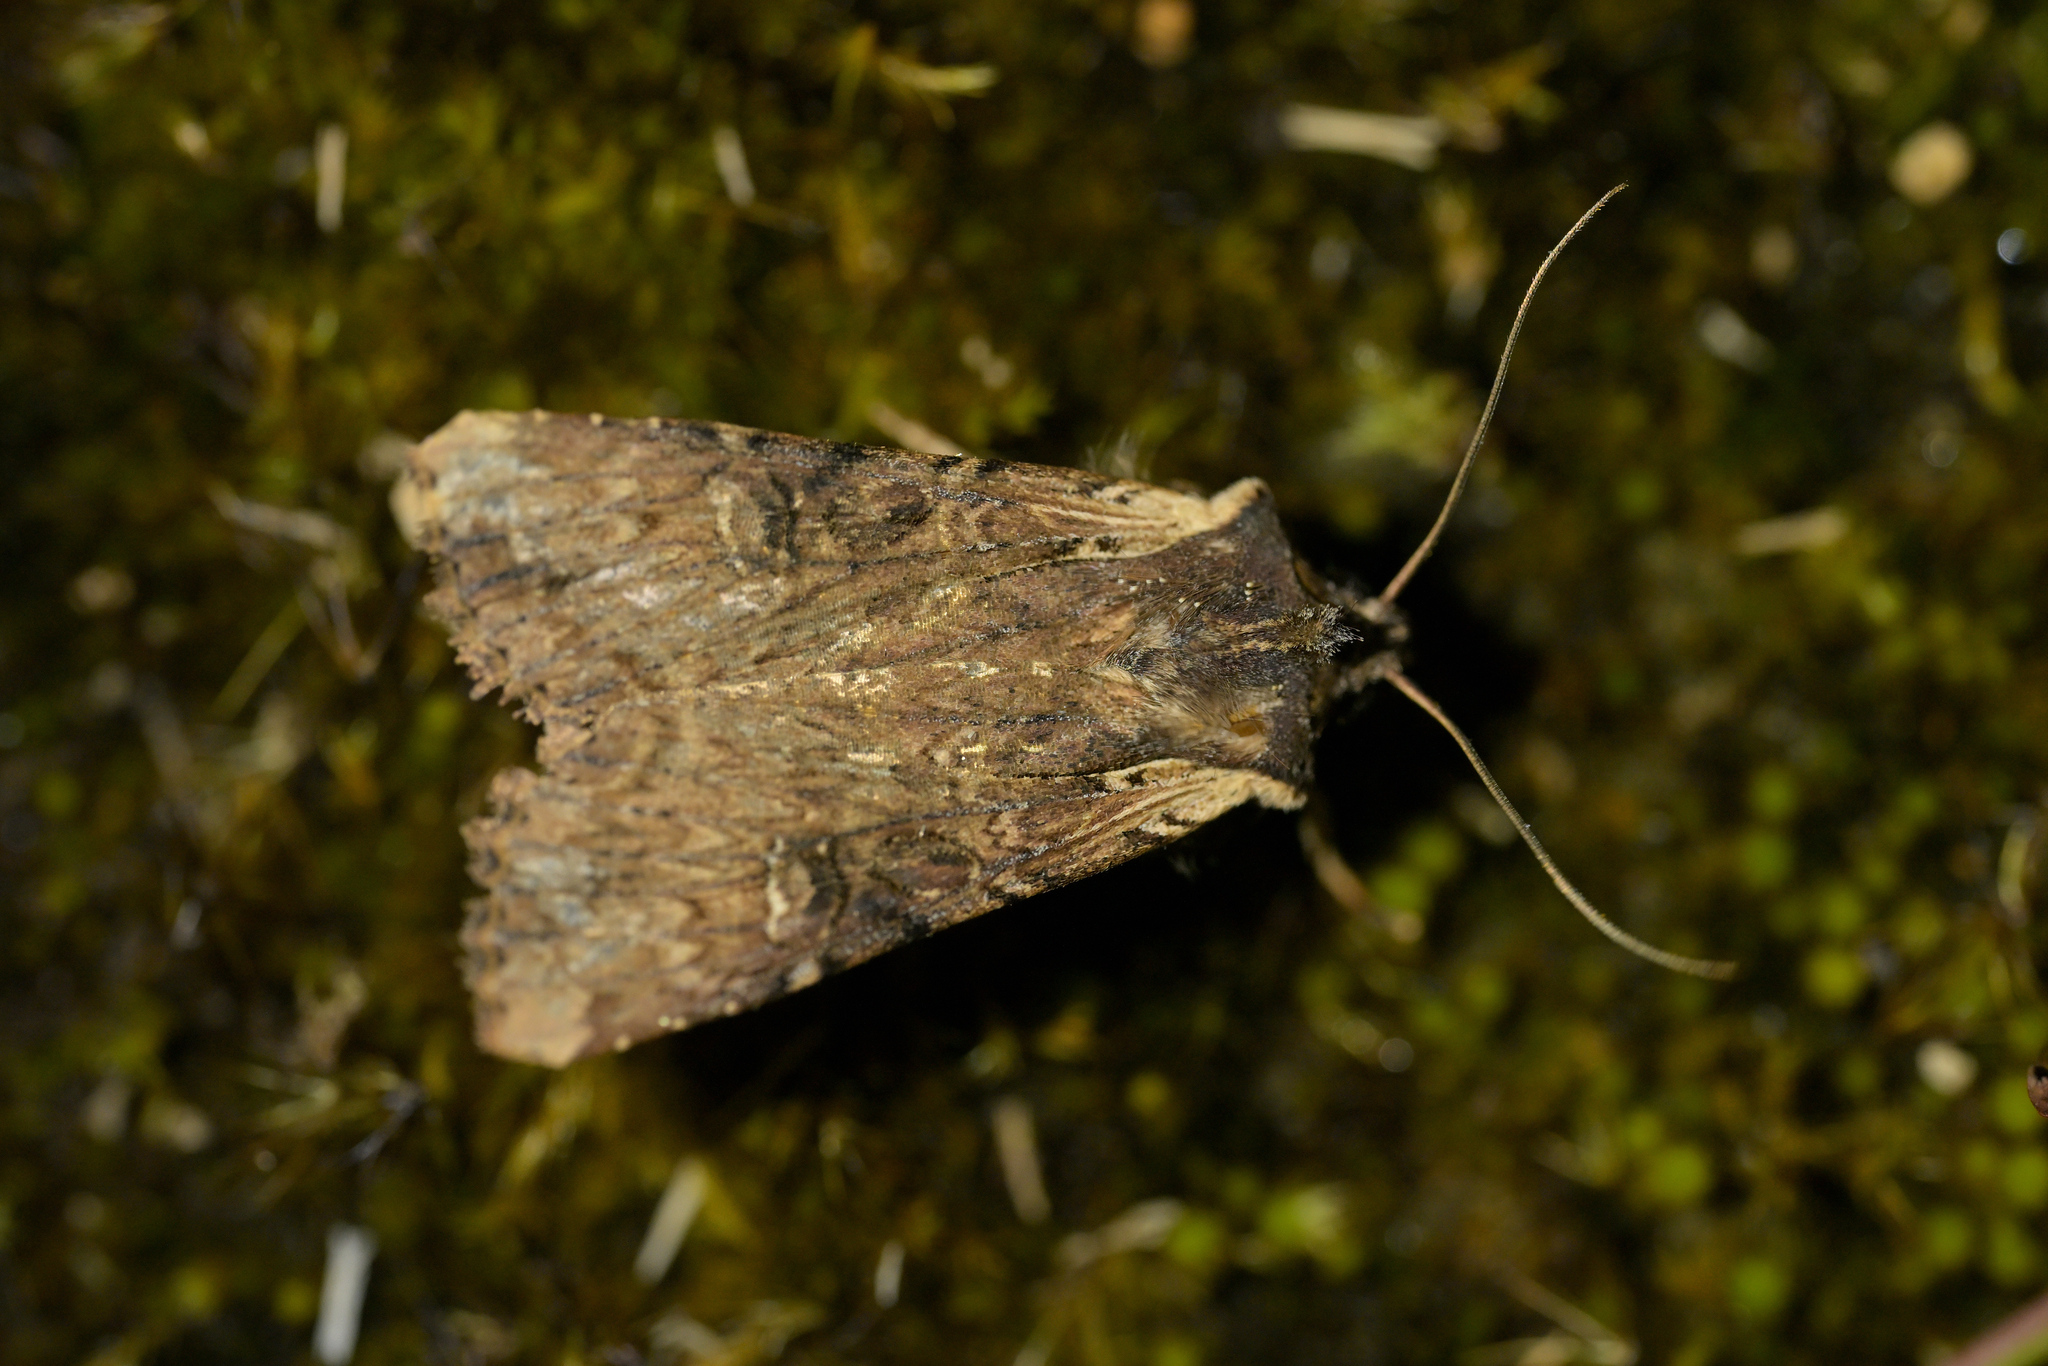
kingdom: Animalia
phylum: Arthropoda
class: Insecta
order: Lepidoptera
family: Noctuidae
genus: Ichneutica
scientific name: Ichneutica omoplaca
